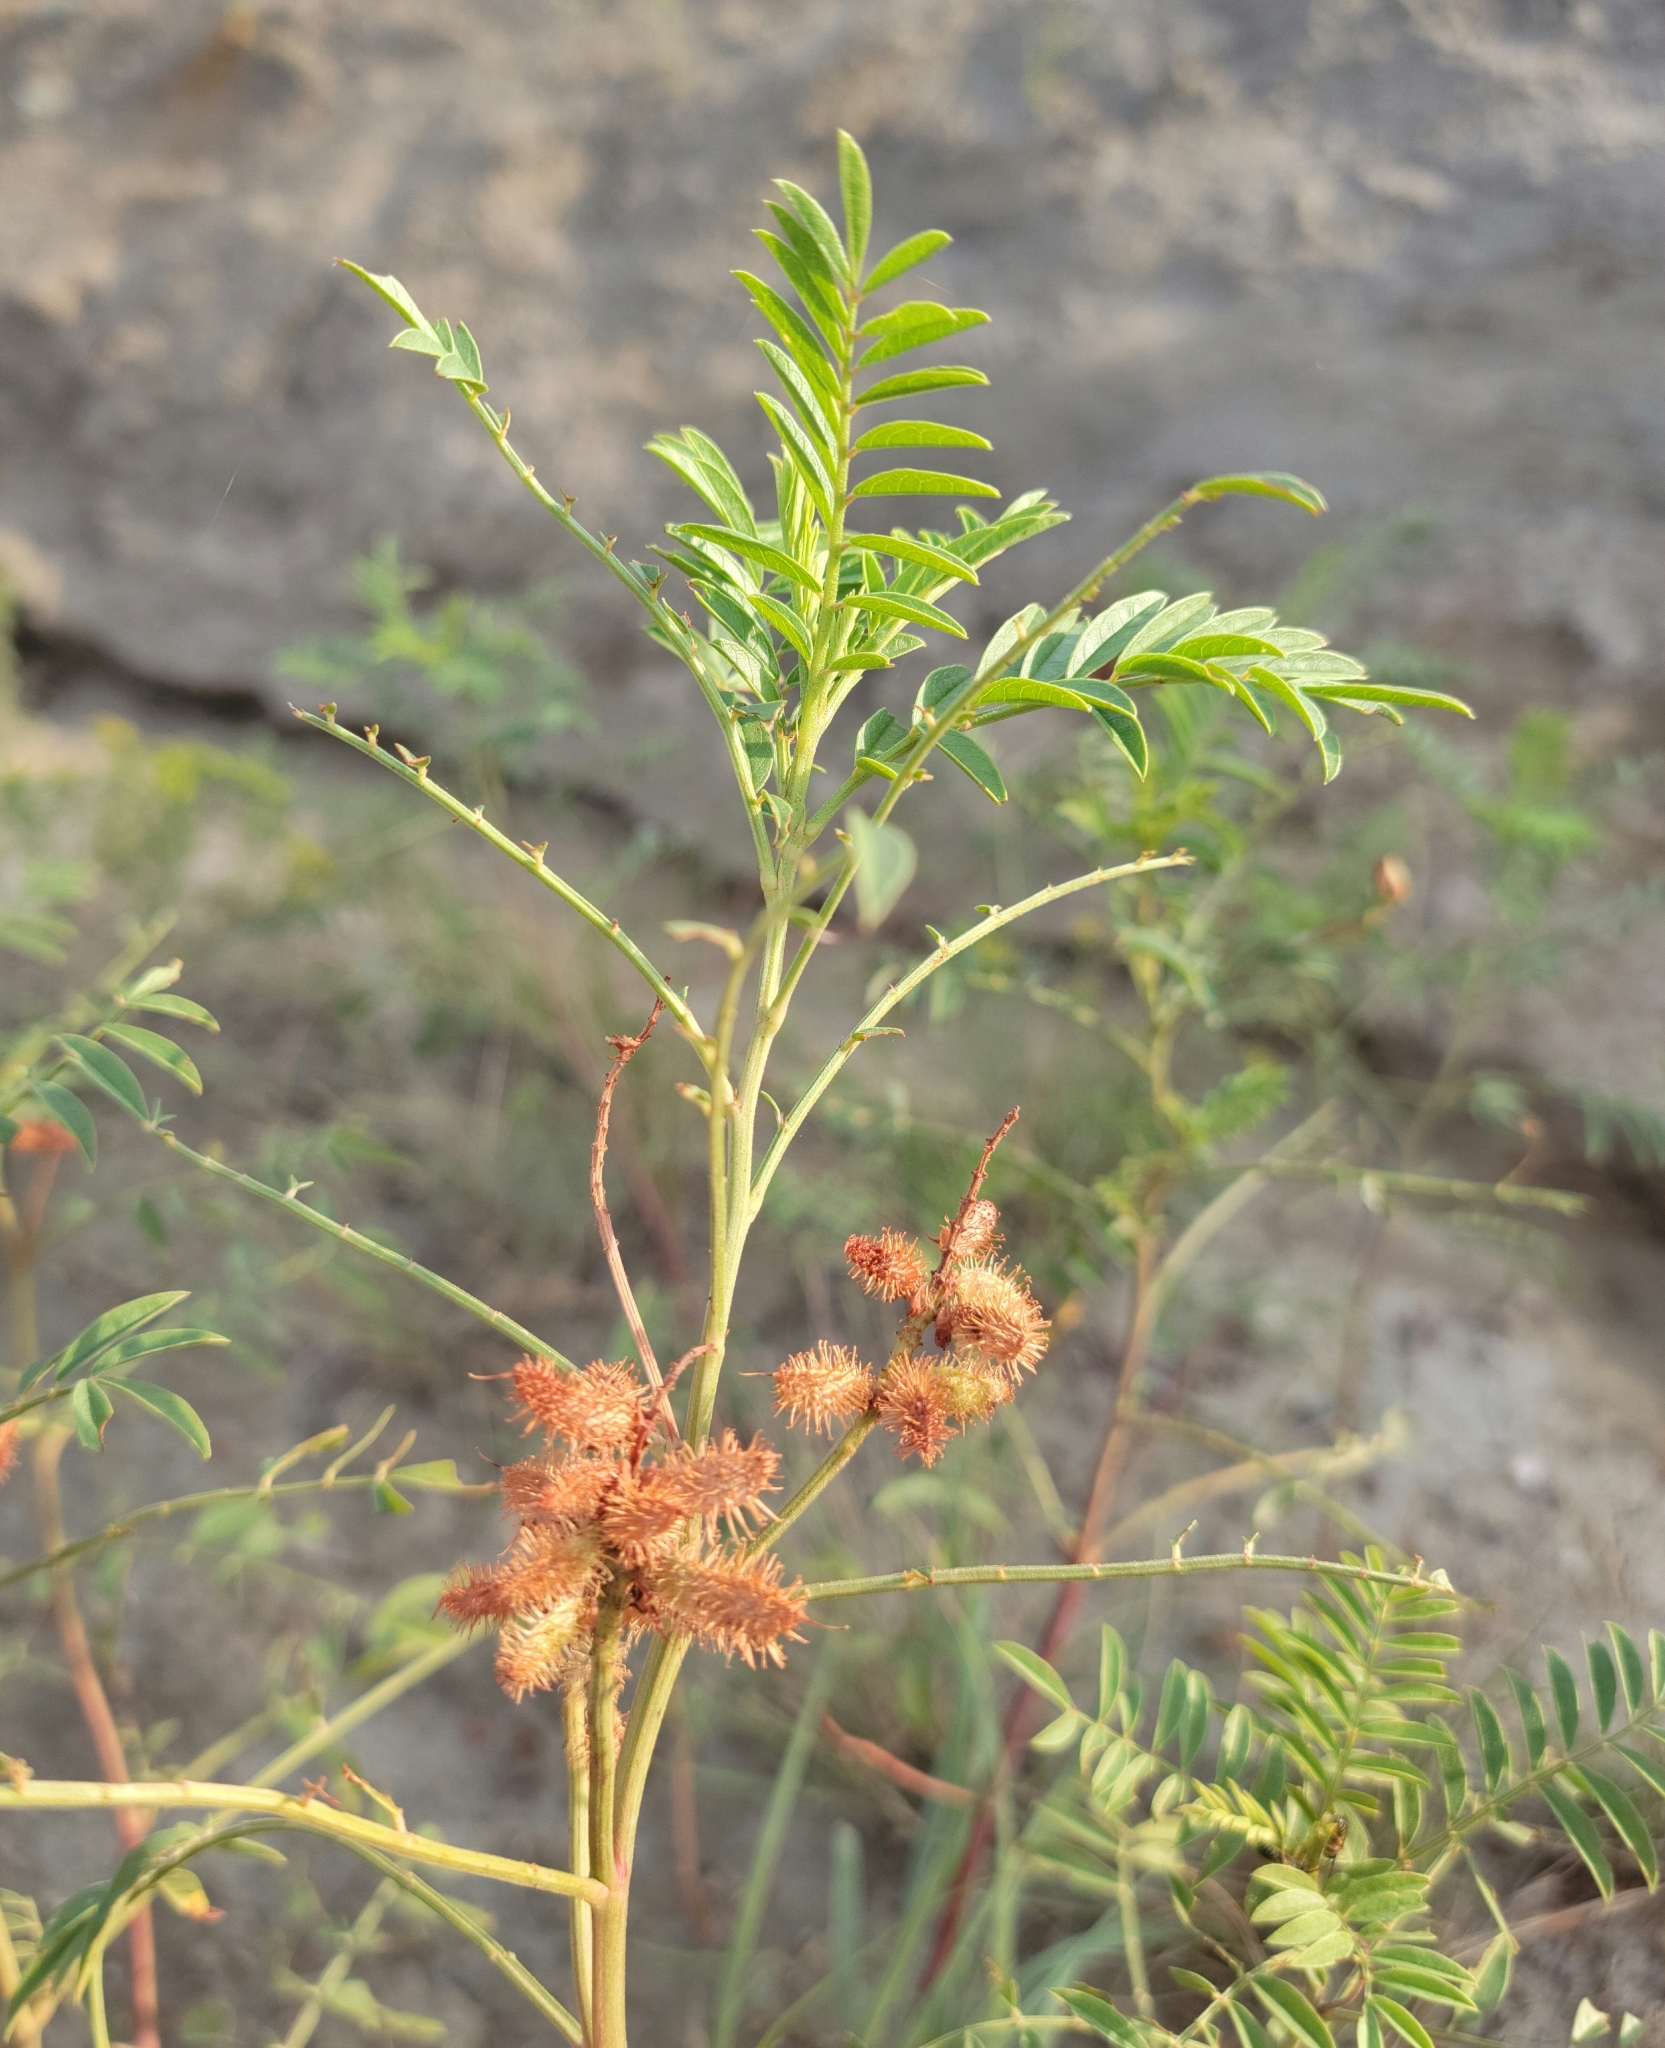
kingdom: Plantae
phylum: Tracheophyta
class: Magnoliopsida
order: Fabales
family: Fabaceae
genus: Glycyrrhiza
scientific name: Glycyrrhiza lepidota
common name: American liquorice
